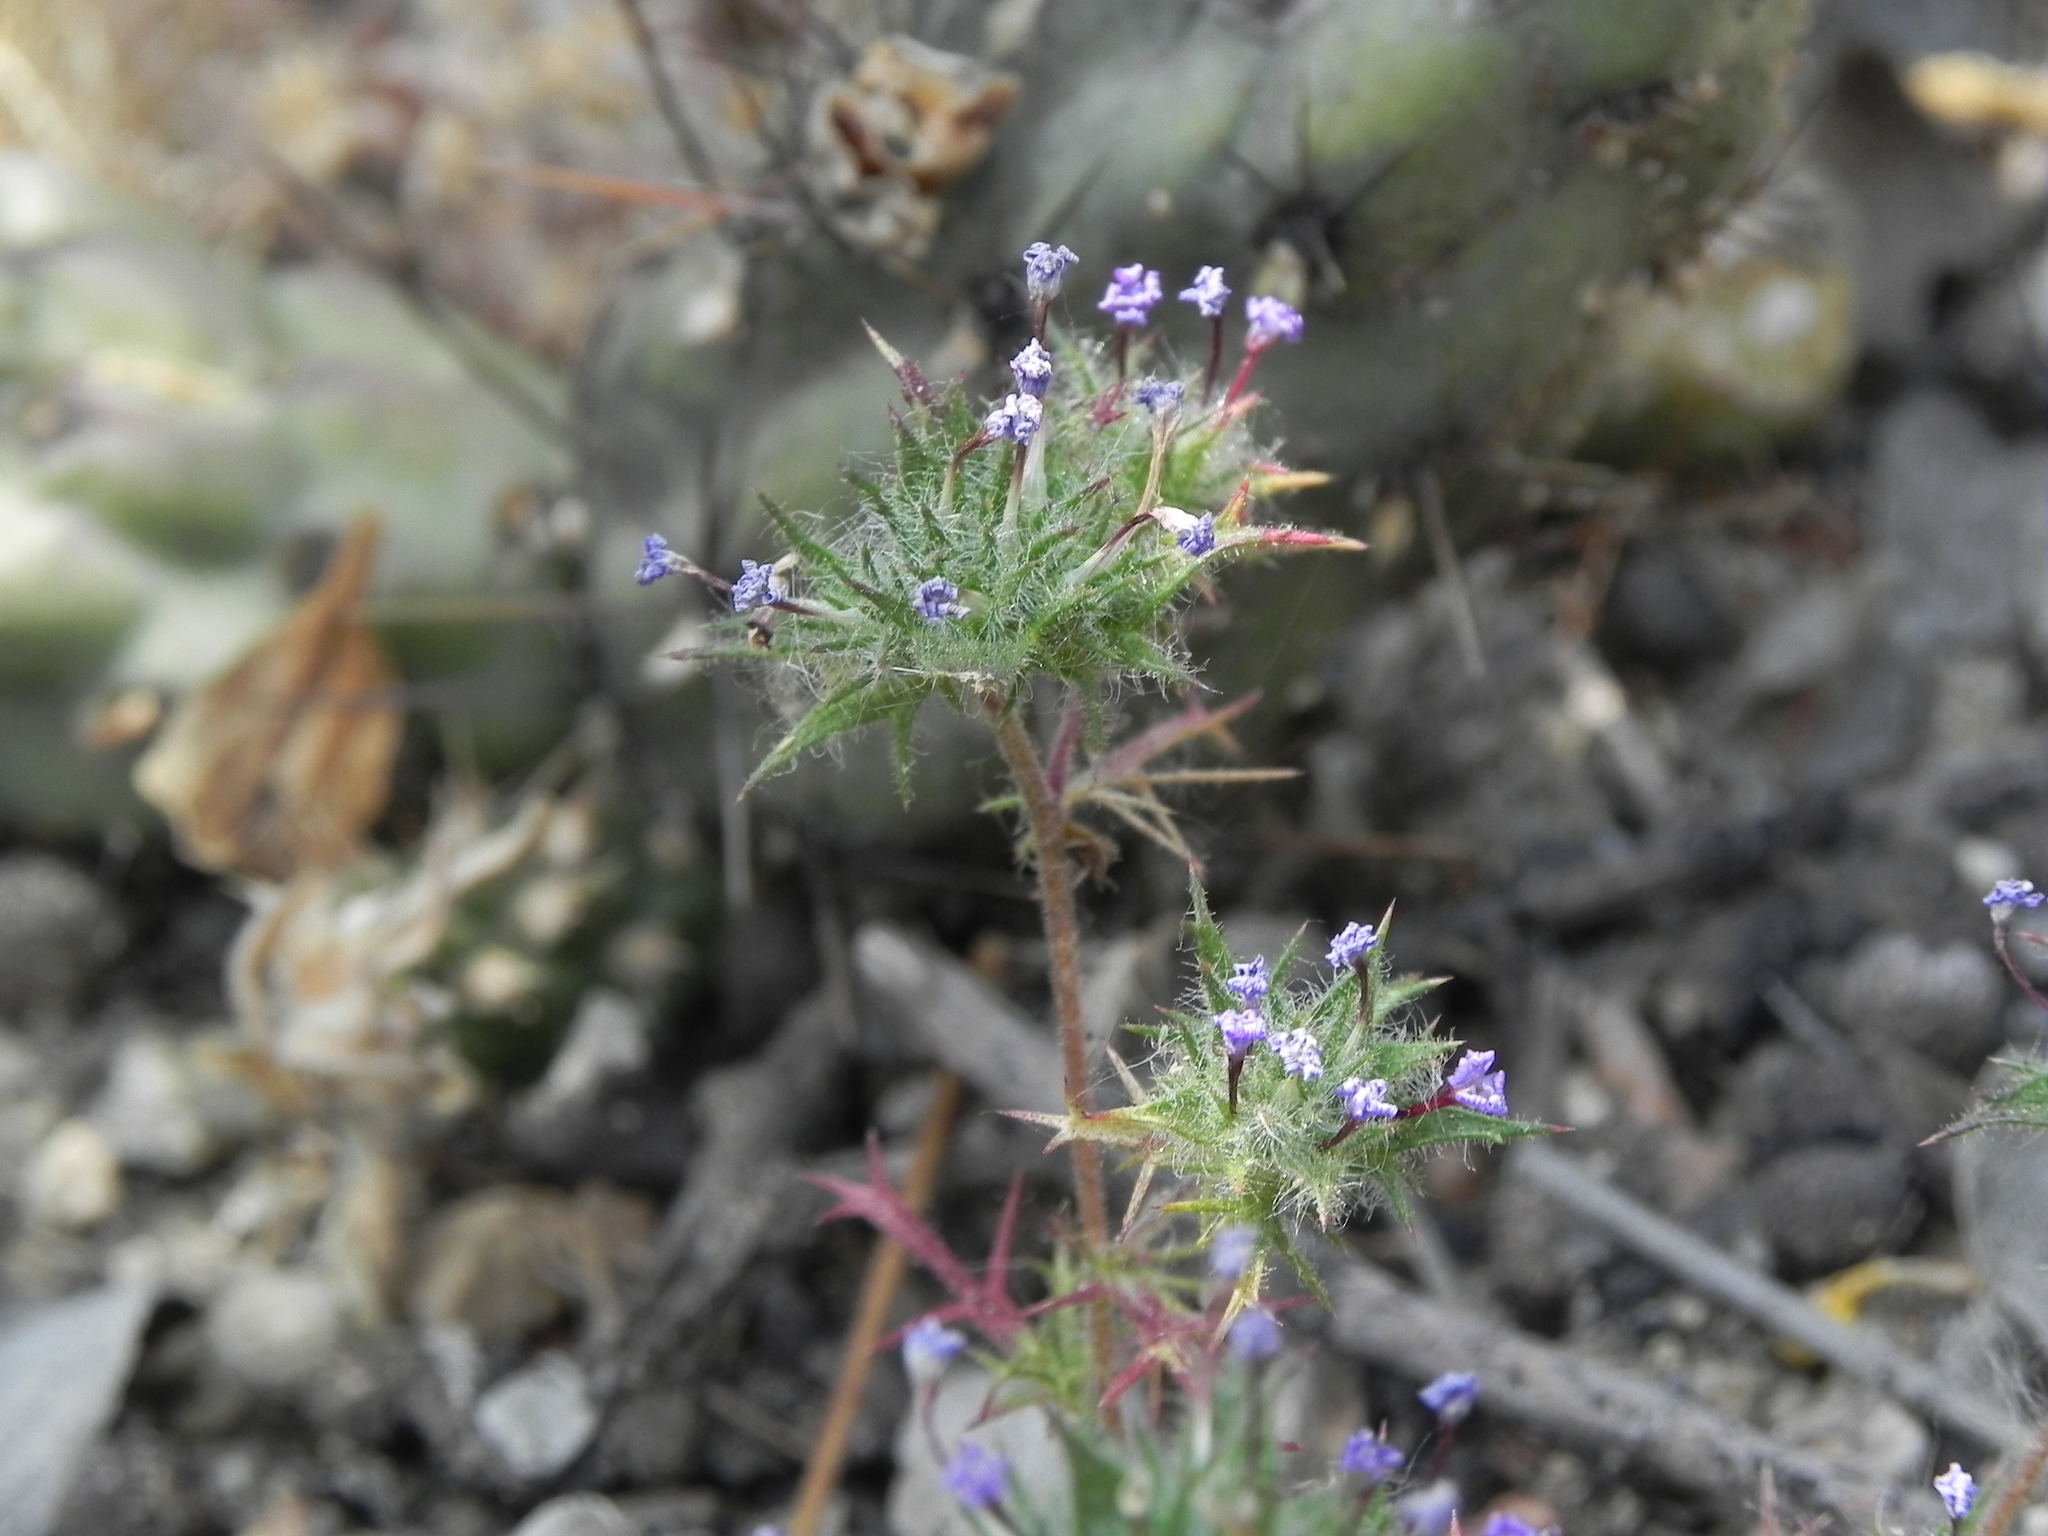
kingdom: Plantae
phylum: Tracheophyta
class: Magnoliopsida
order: Ericales
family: Polemoniaceae
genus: Navarretia
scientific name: Navarretia hamata
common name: Hooked navarretia
